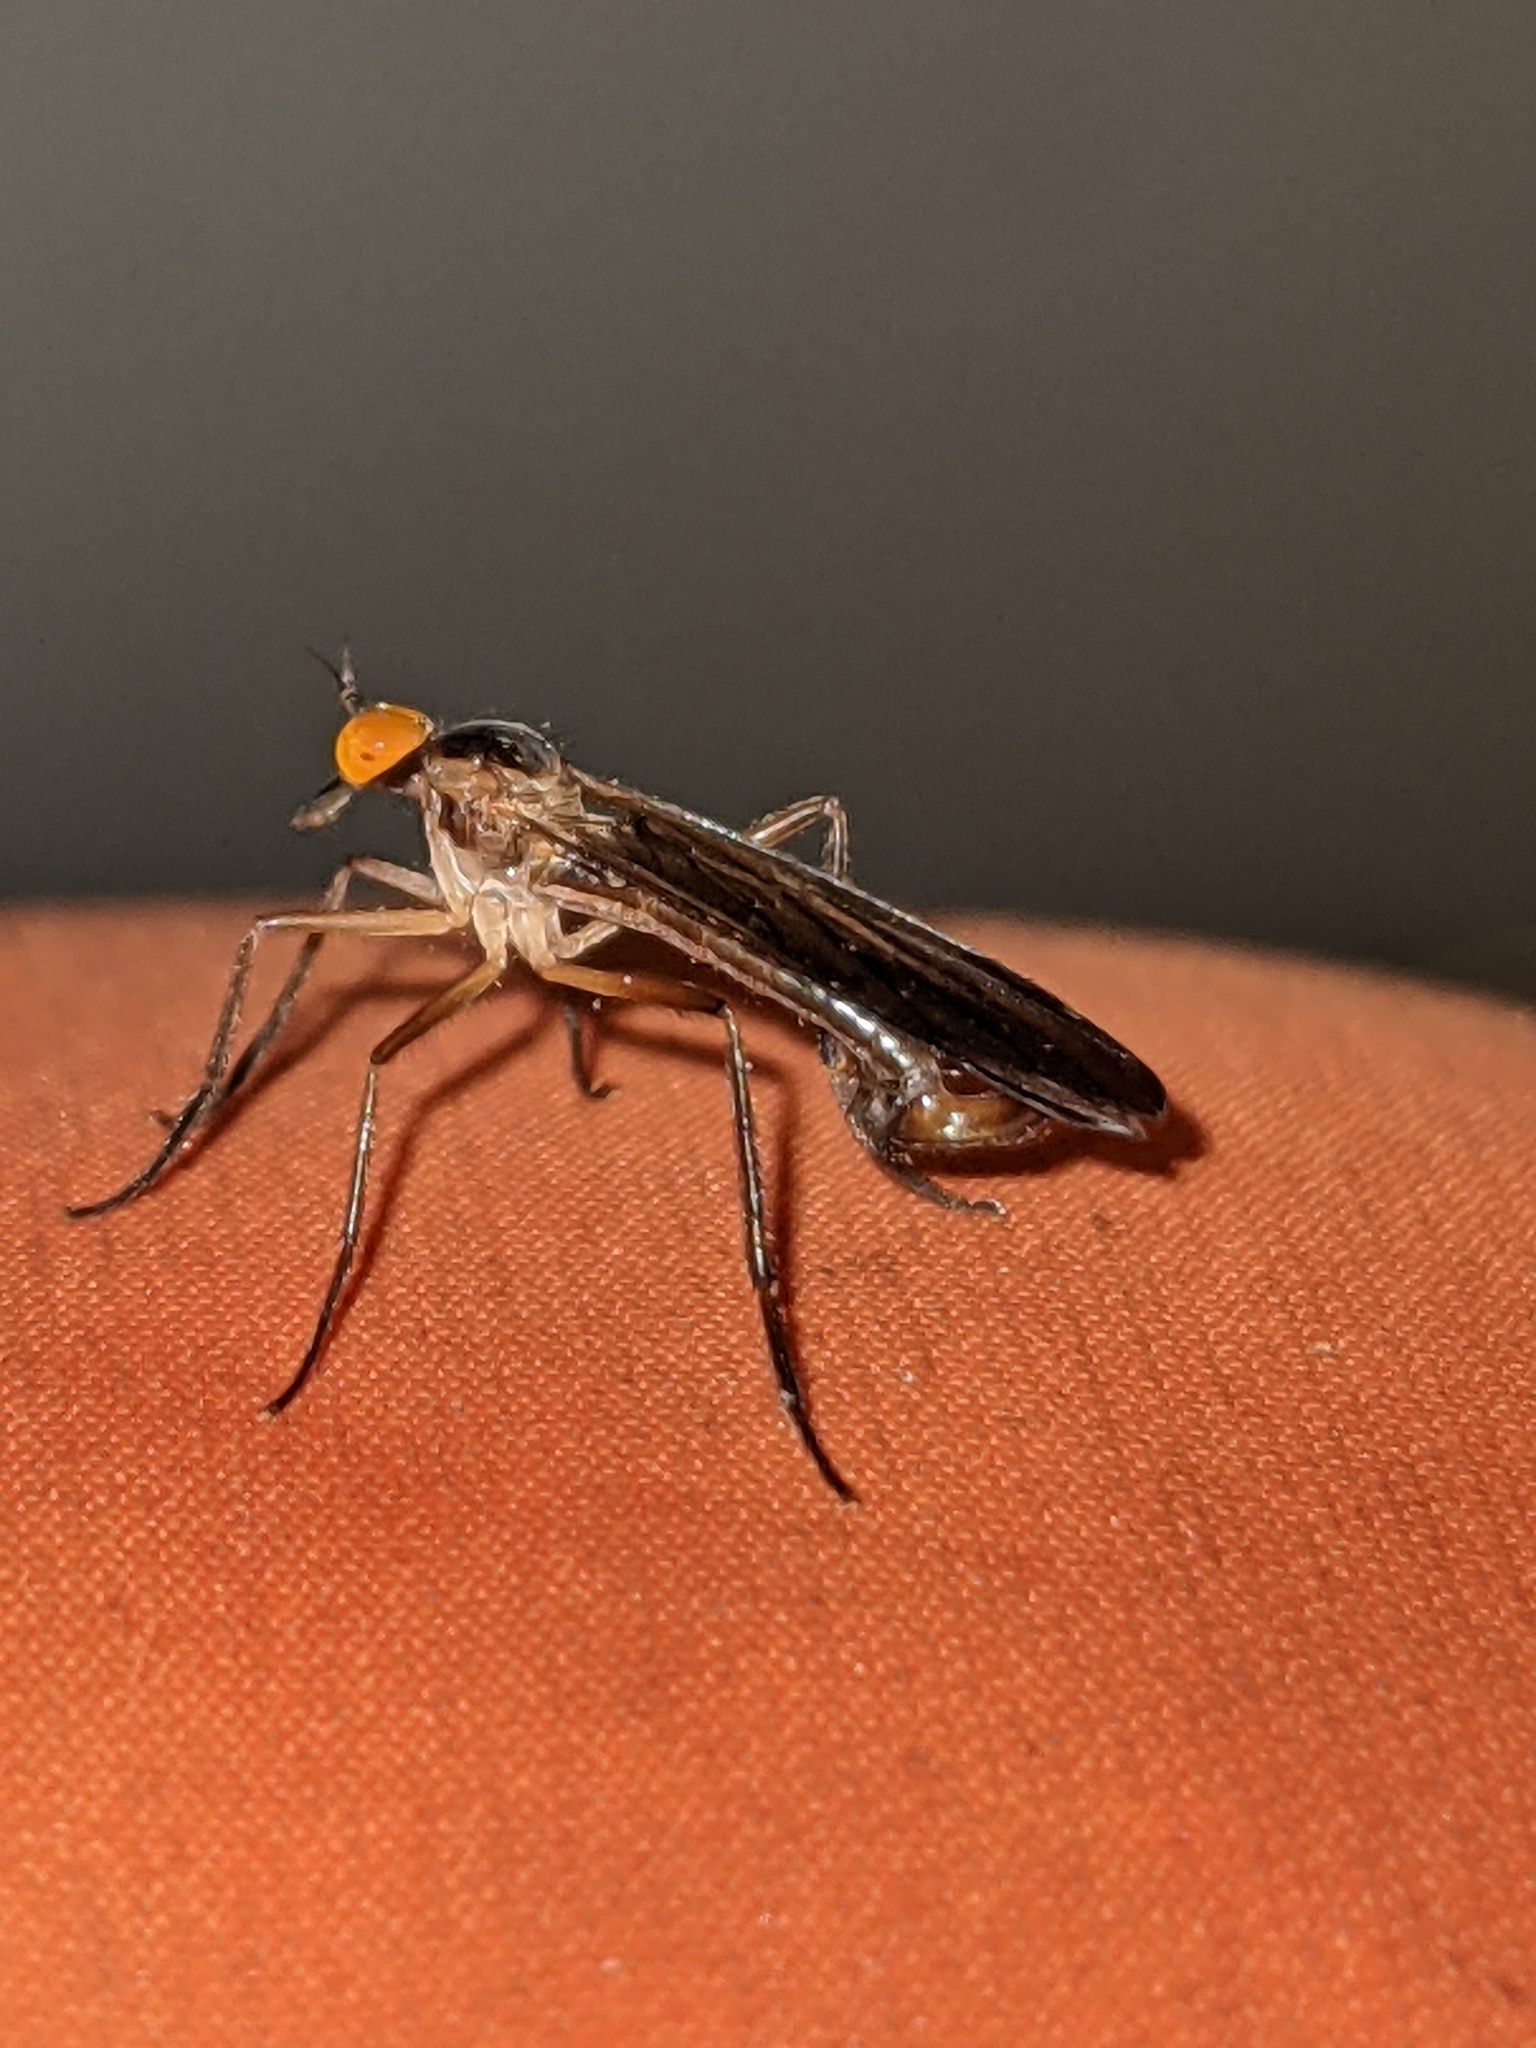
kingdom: Animalia
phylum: Arthropoda
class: Insecta
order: Diptera
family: Empididae
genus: Rhamphomyia
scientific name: Rhamphomyia longicauda
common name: Long-tailed dance fly
